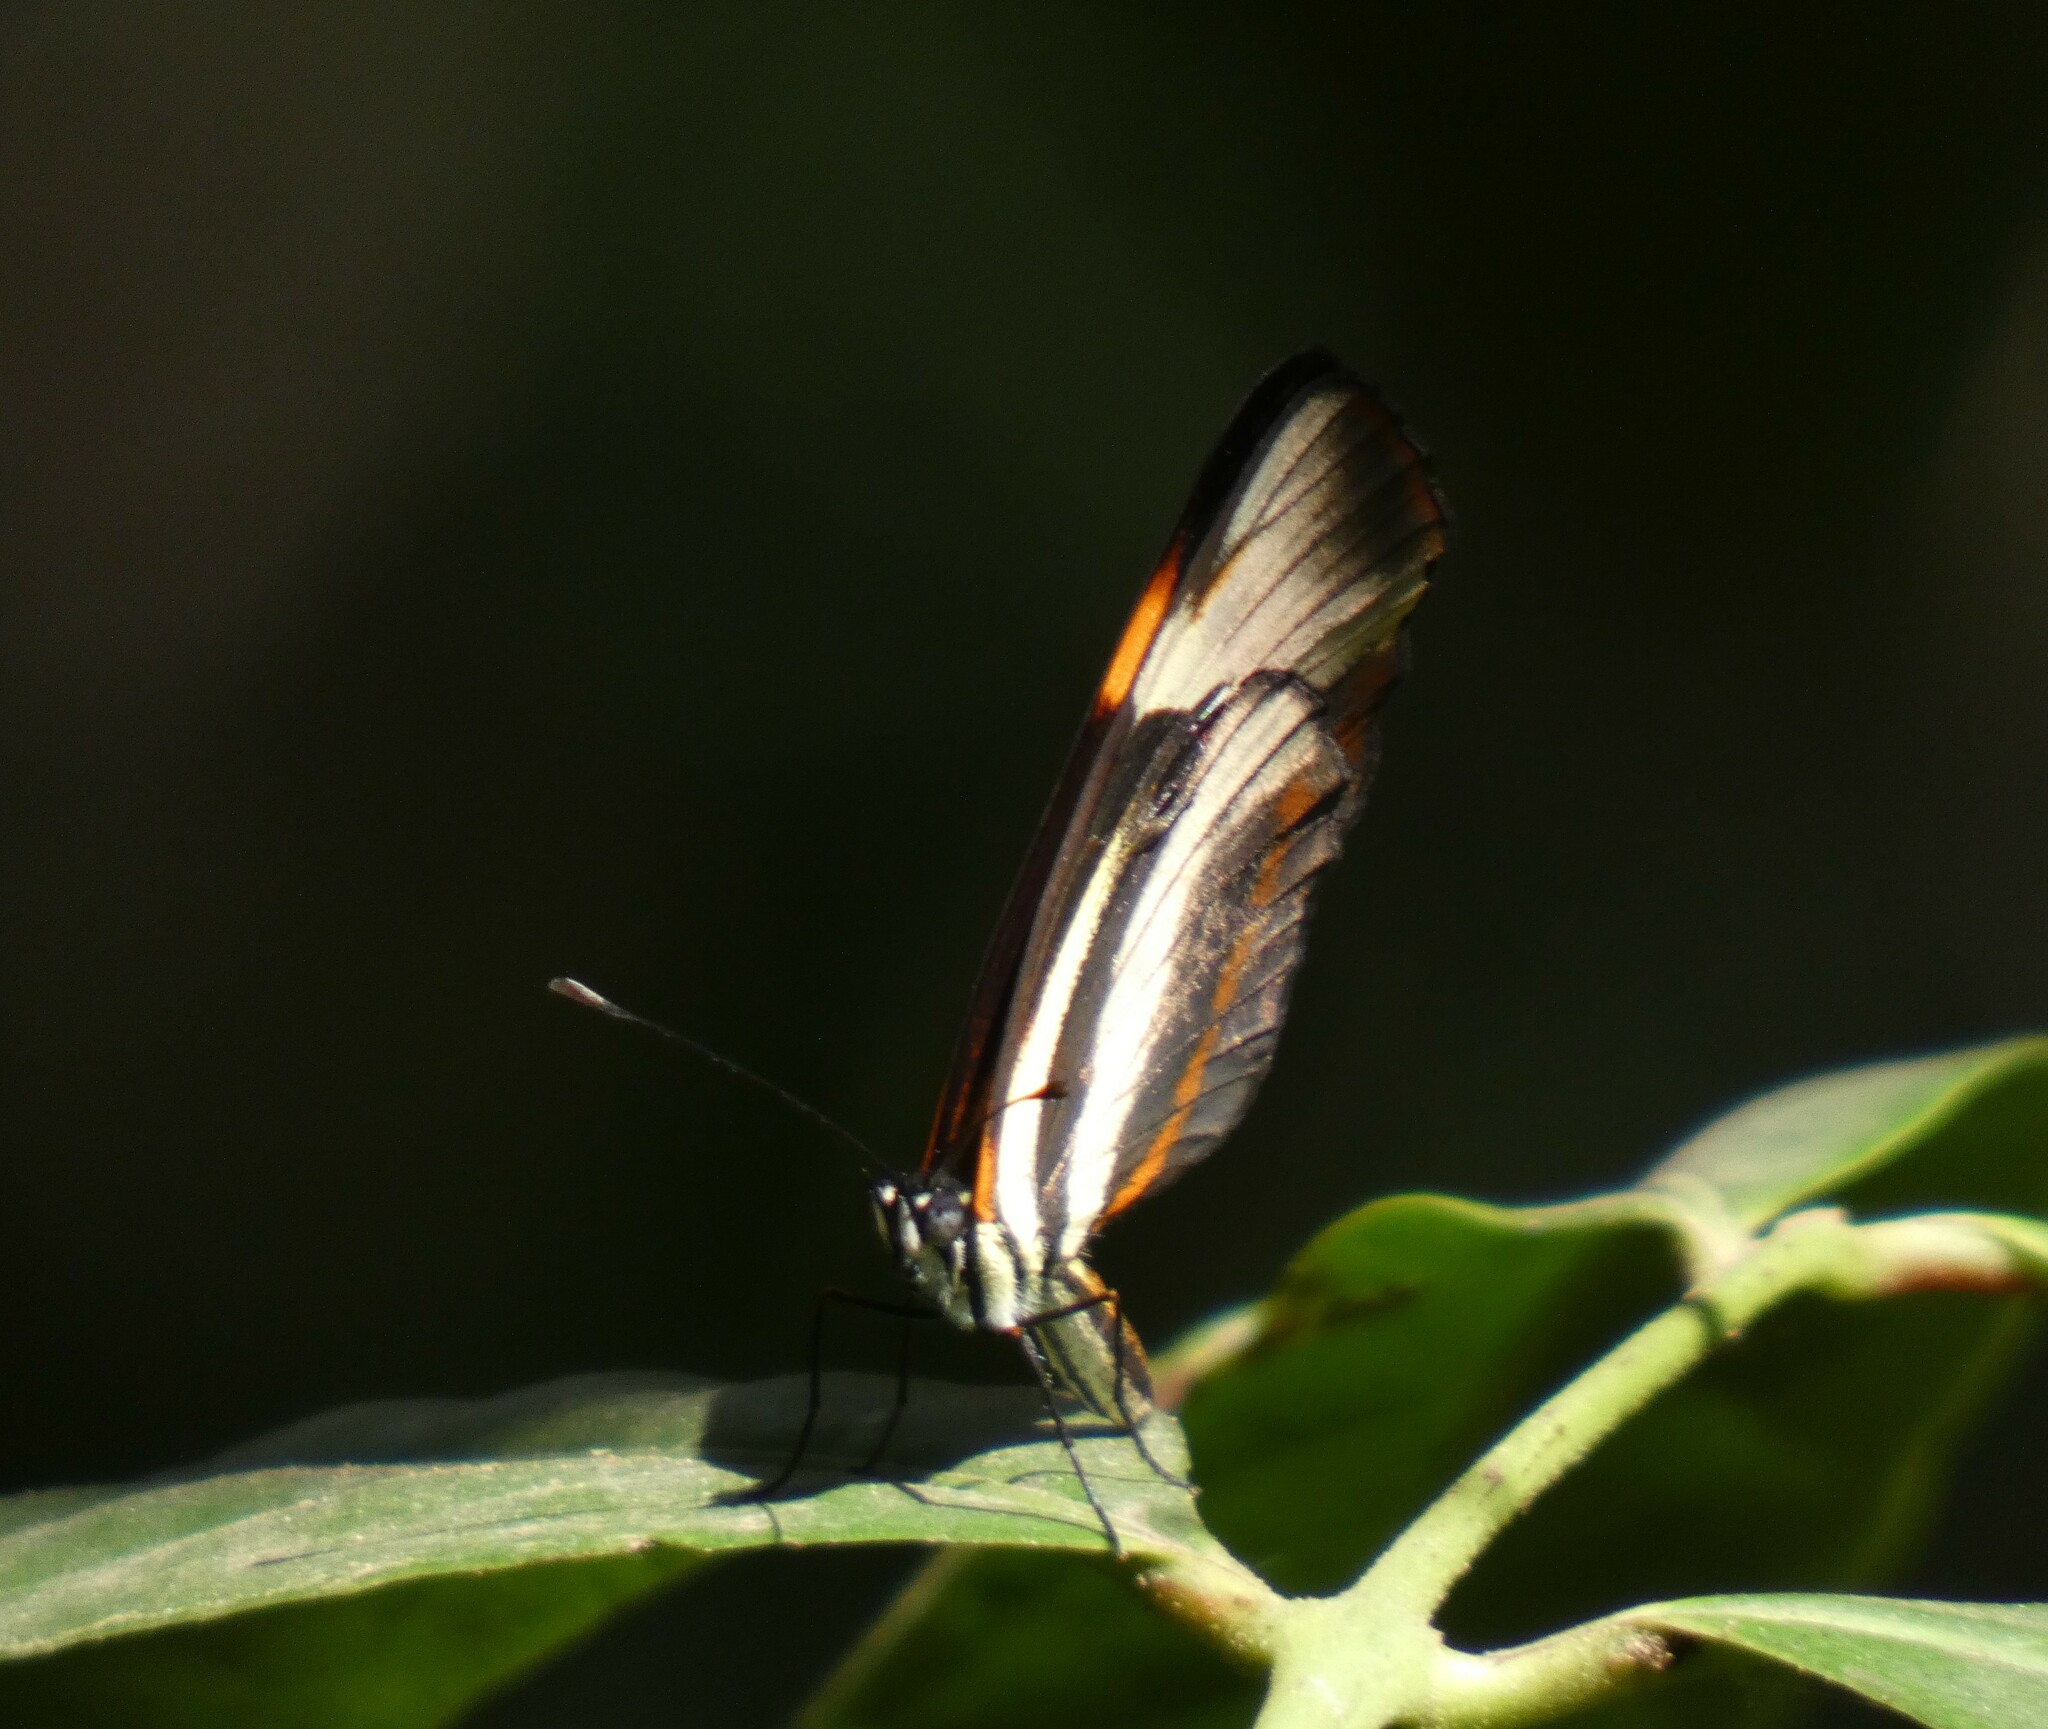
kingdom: Animalia
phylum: Arthropoda
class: Insecta
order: Lepidoptera
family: Nymphalidae
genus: Eresia
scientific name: Eresia lansdorfi
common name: Lansdorf's crescent
